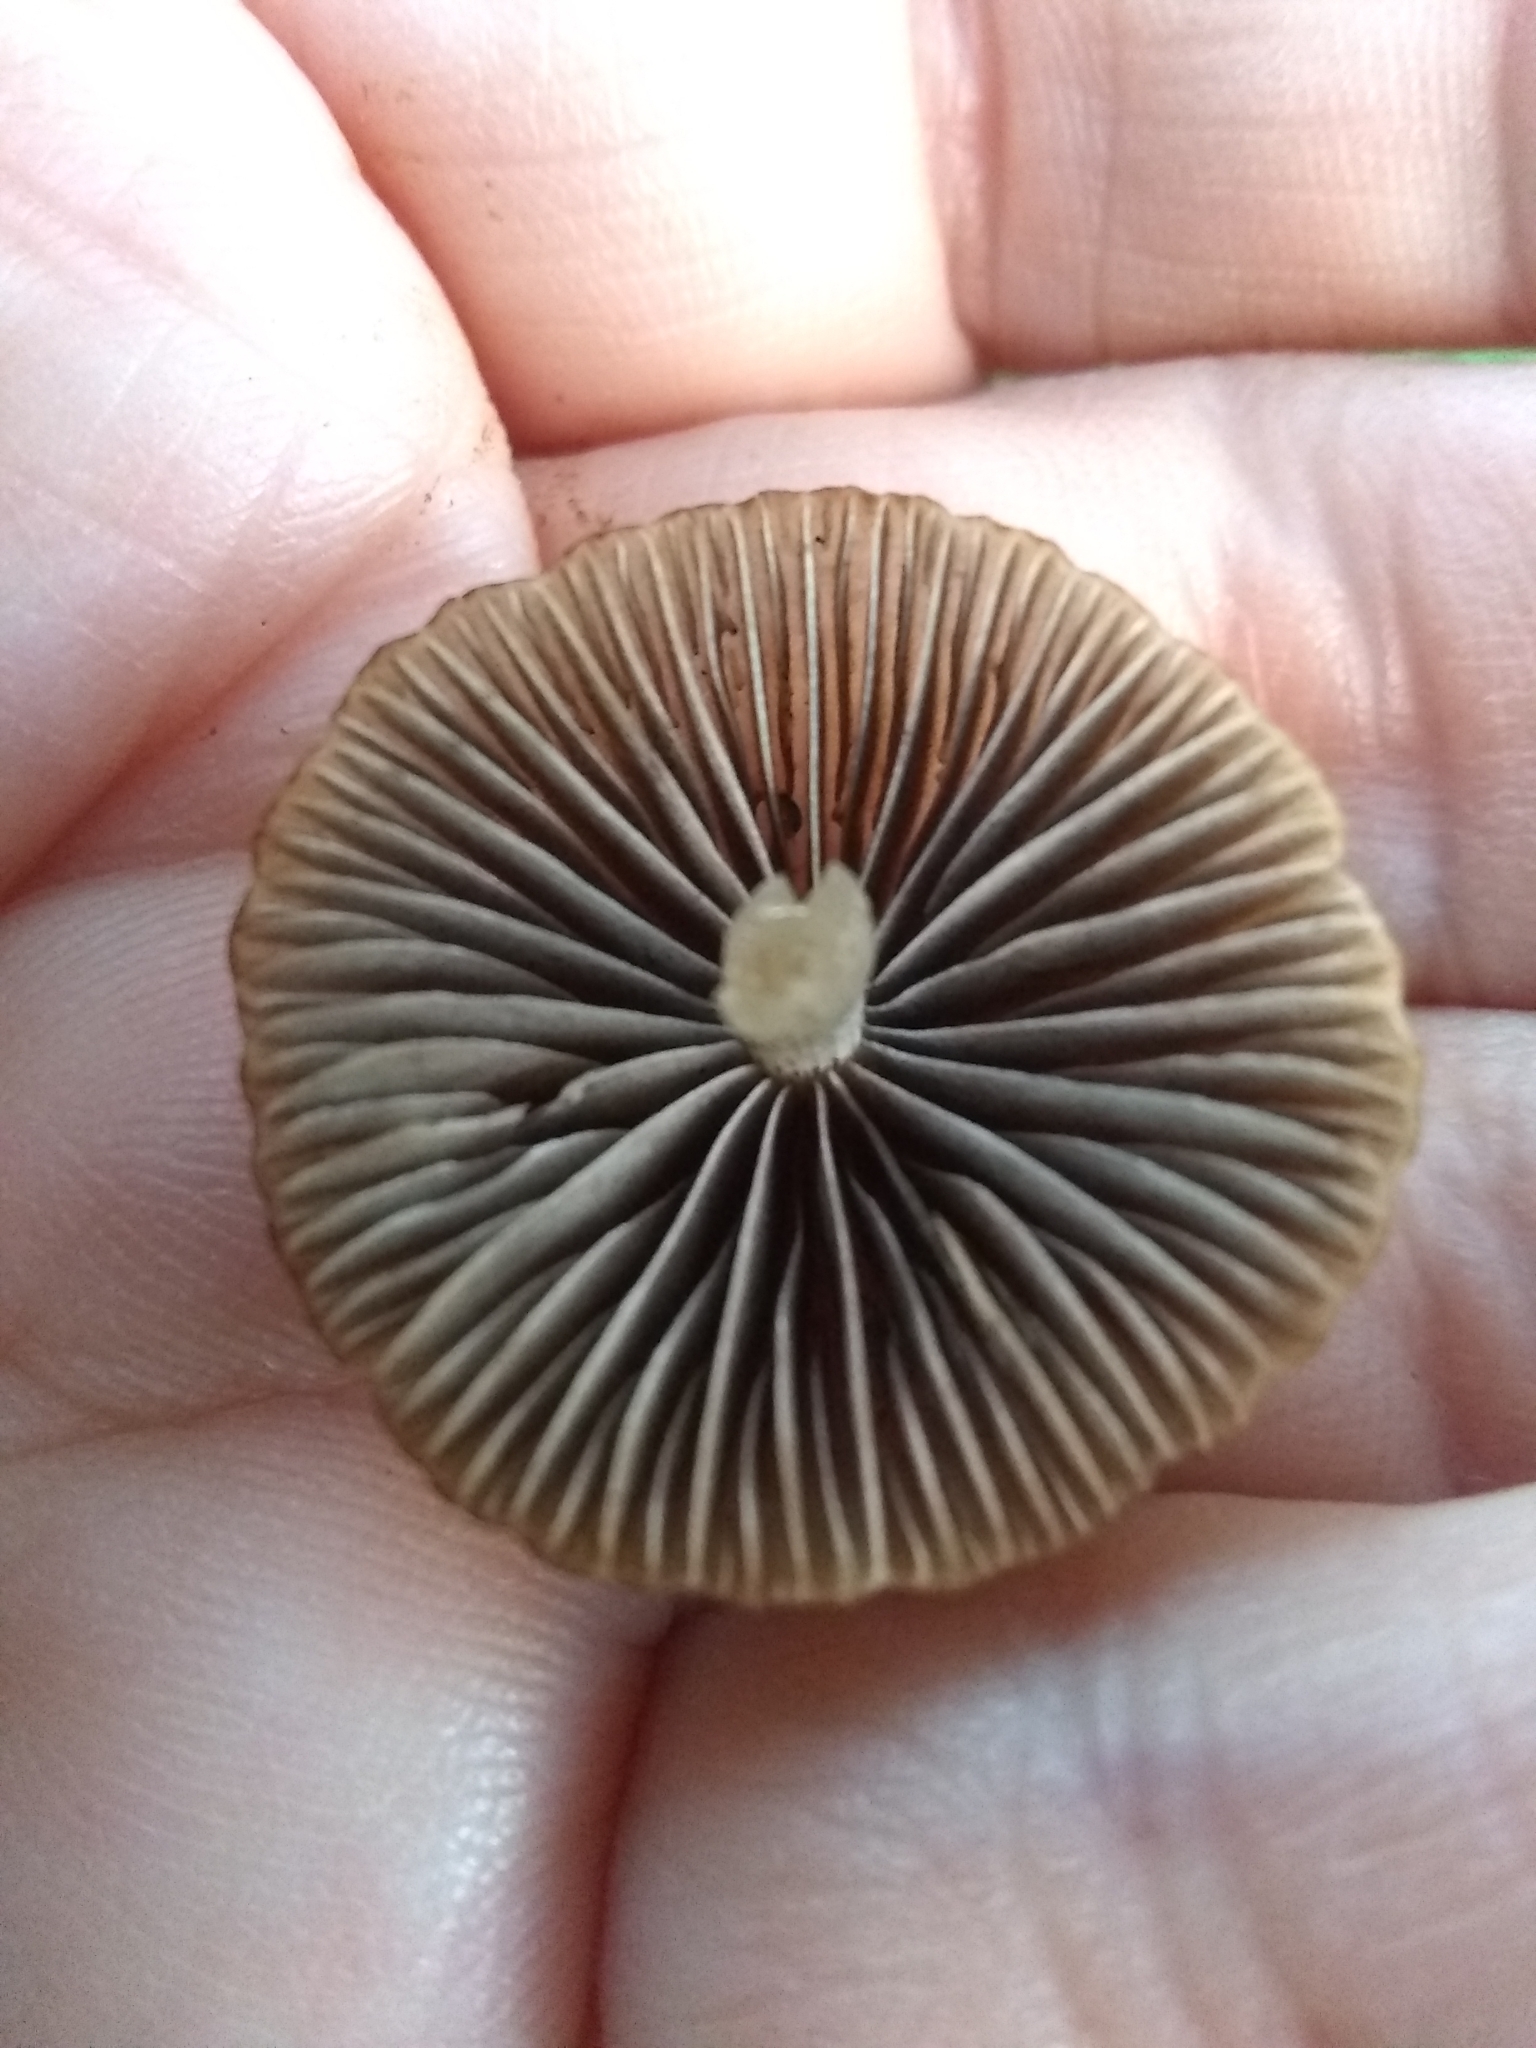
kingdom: Fungi
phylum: Basidiomycota
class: Agaricomycetes
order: Agaricales
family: Psathyrellaceae
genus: Psathyrella
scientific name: Psathyrella corrugis
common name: Red edge brittlestem
